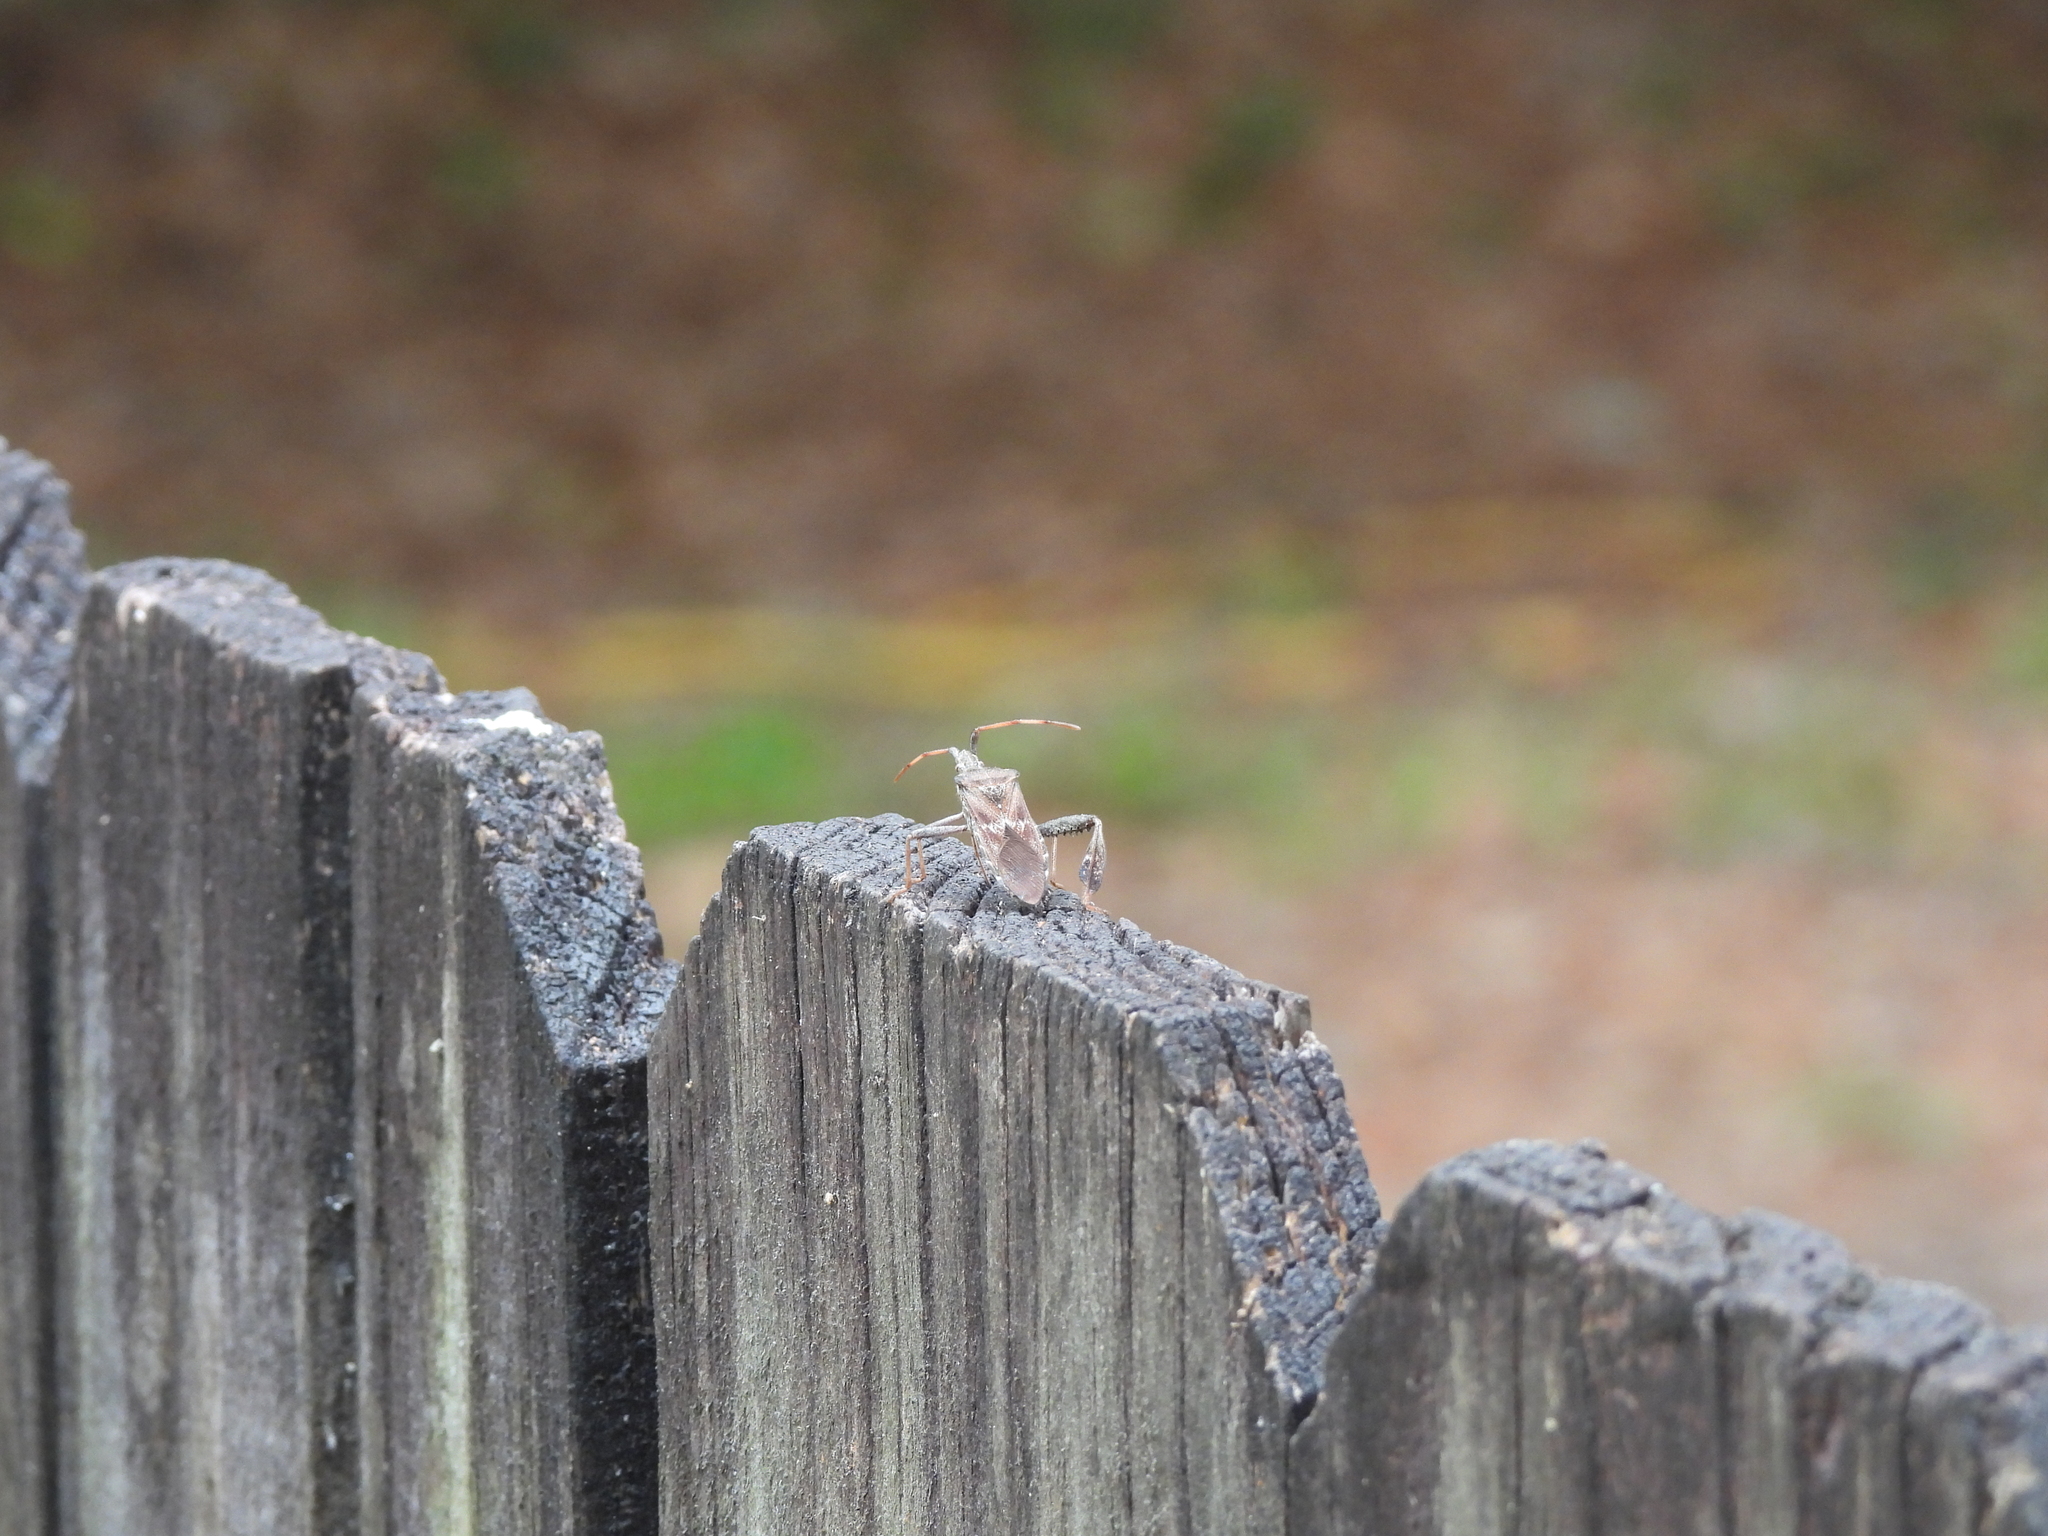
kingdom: Animalia
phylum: Arthropoda
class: Insecta
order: Hemiptera
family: Coreidae
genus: Leptoglossus
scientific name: Leptoglossus corculus
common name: Southern pine seed bug
